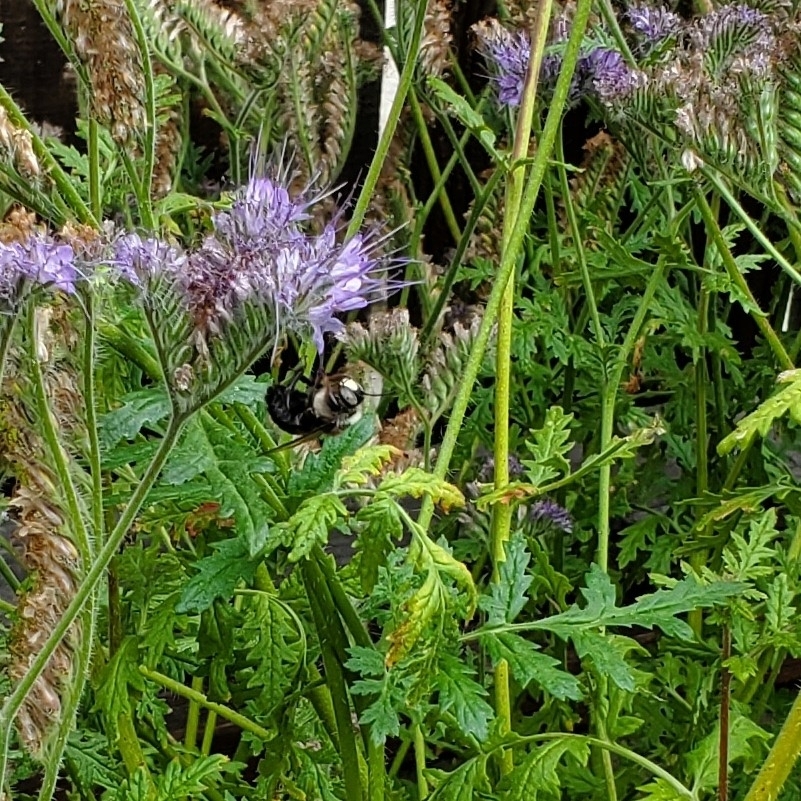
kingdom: Animalia
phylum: Arthropoda
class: Insecta
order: Hymenoptera
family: Apidae
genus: Xylocopa
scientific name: Xylocopa tabaniformis
